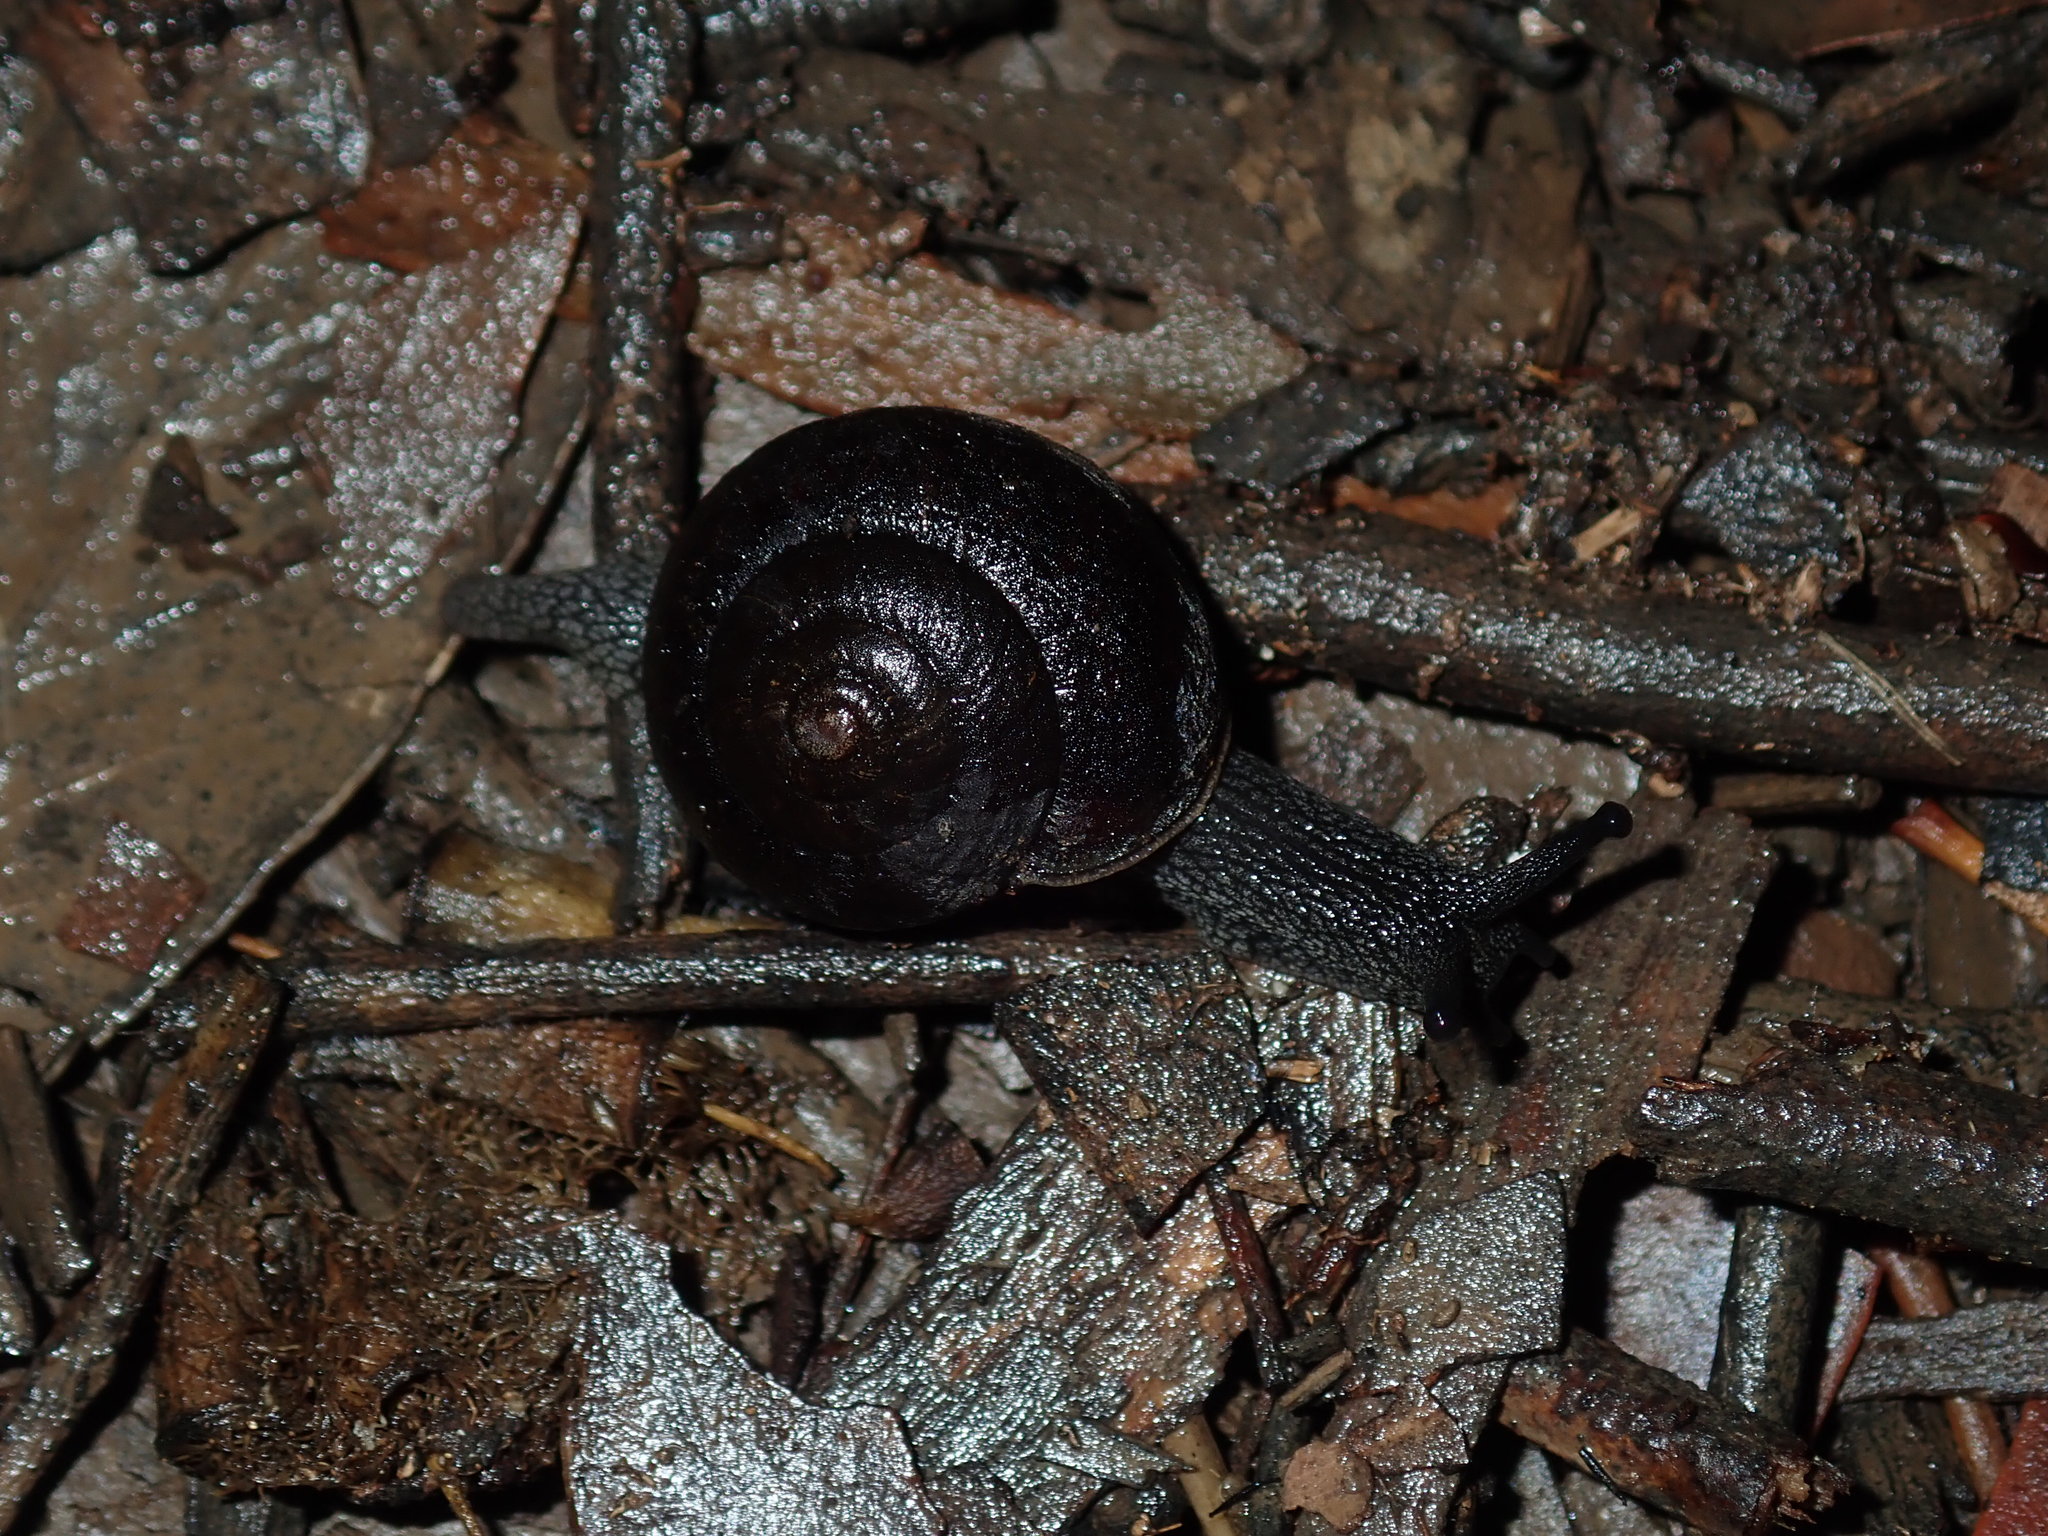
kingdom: Animalia
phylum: Mollusca
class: Gastropoda
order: Stylommatophora
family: Camaenidae
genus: Sauroconcha
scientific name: Sauroconcha sheai
